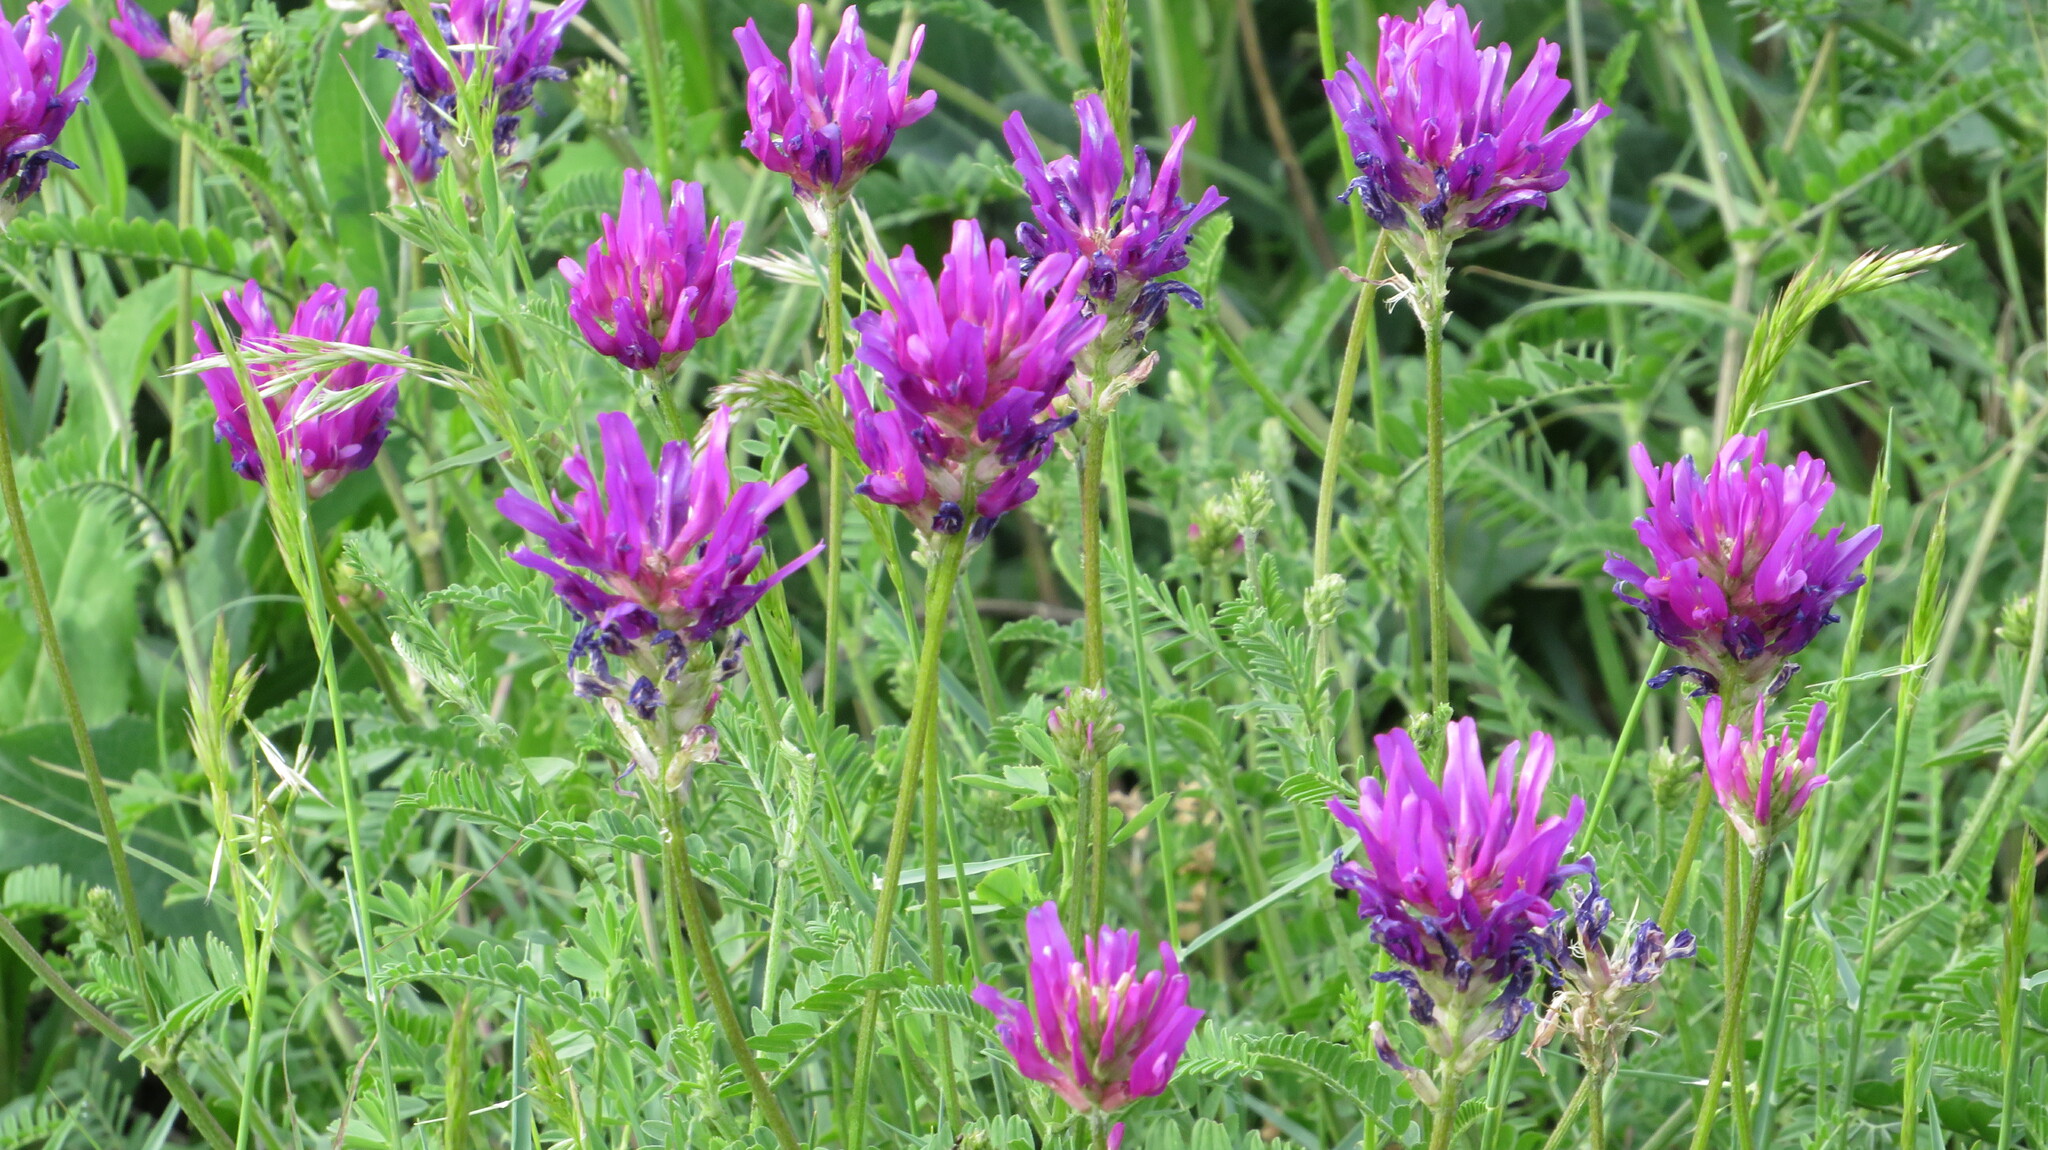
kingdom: Plantae
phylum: Tracheophyta
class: Magnoliopsida
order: Fabales
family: Fabaceae
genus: Astragalus
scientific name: Astragalus onobrychis
